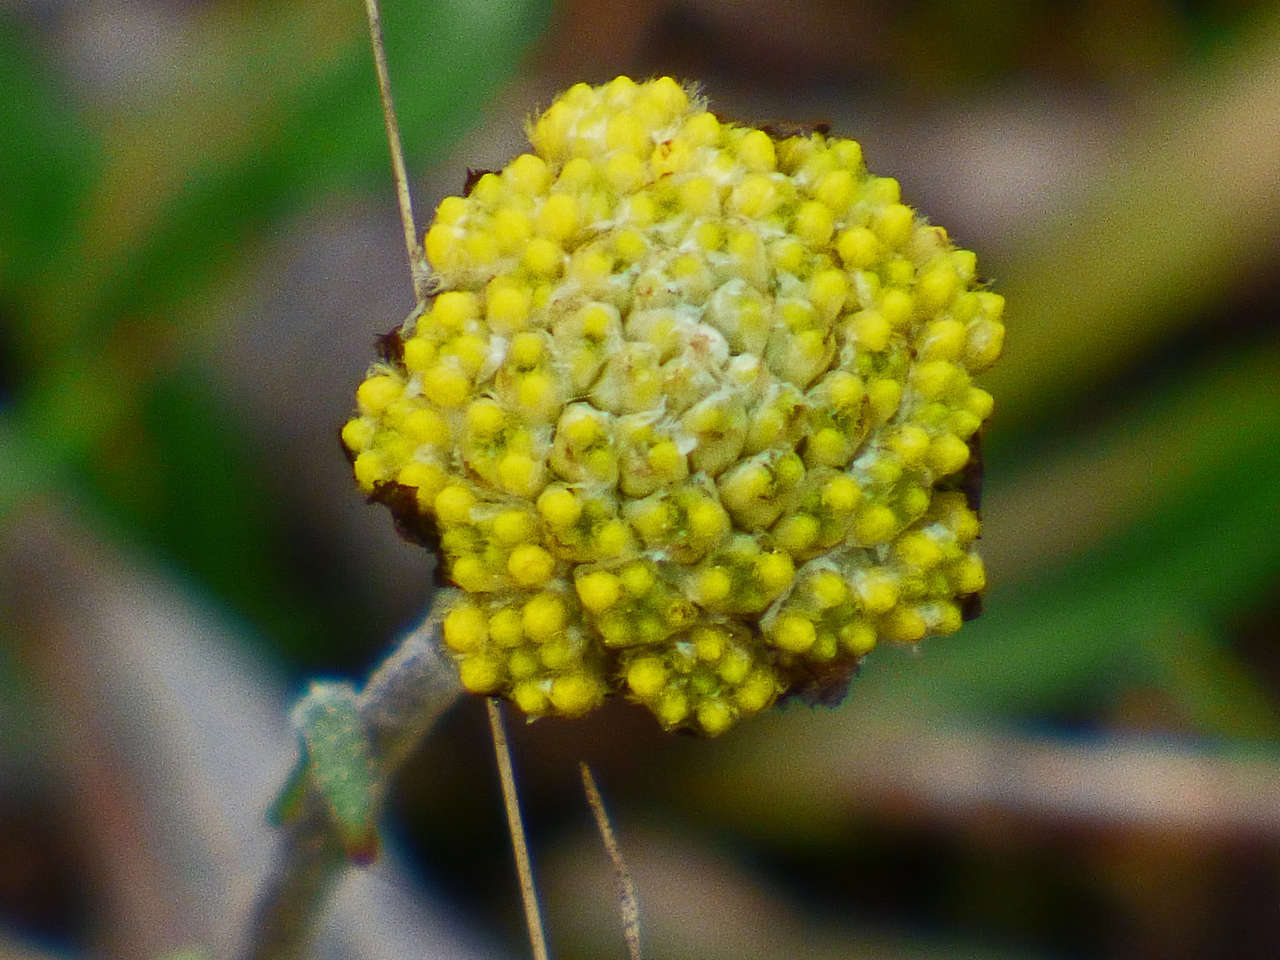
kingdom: Plantae
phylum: Tracheophyta
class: Magnoliopsida
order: Asterales
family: Asteraceae
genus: Craspedia
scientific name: Craspedia variabilis
